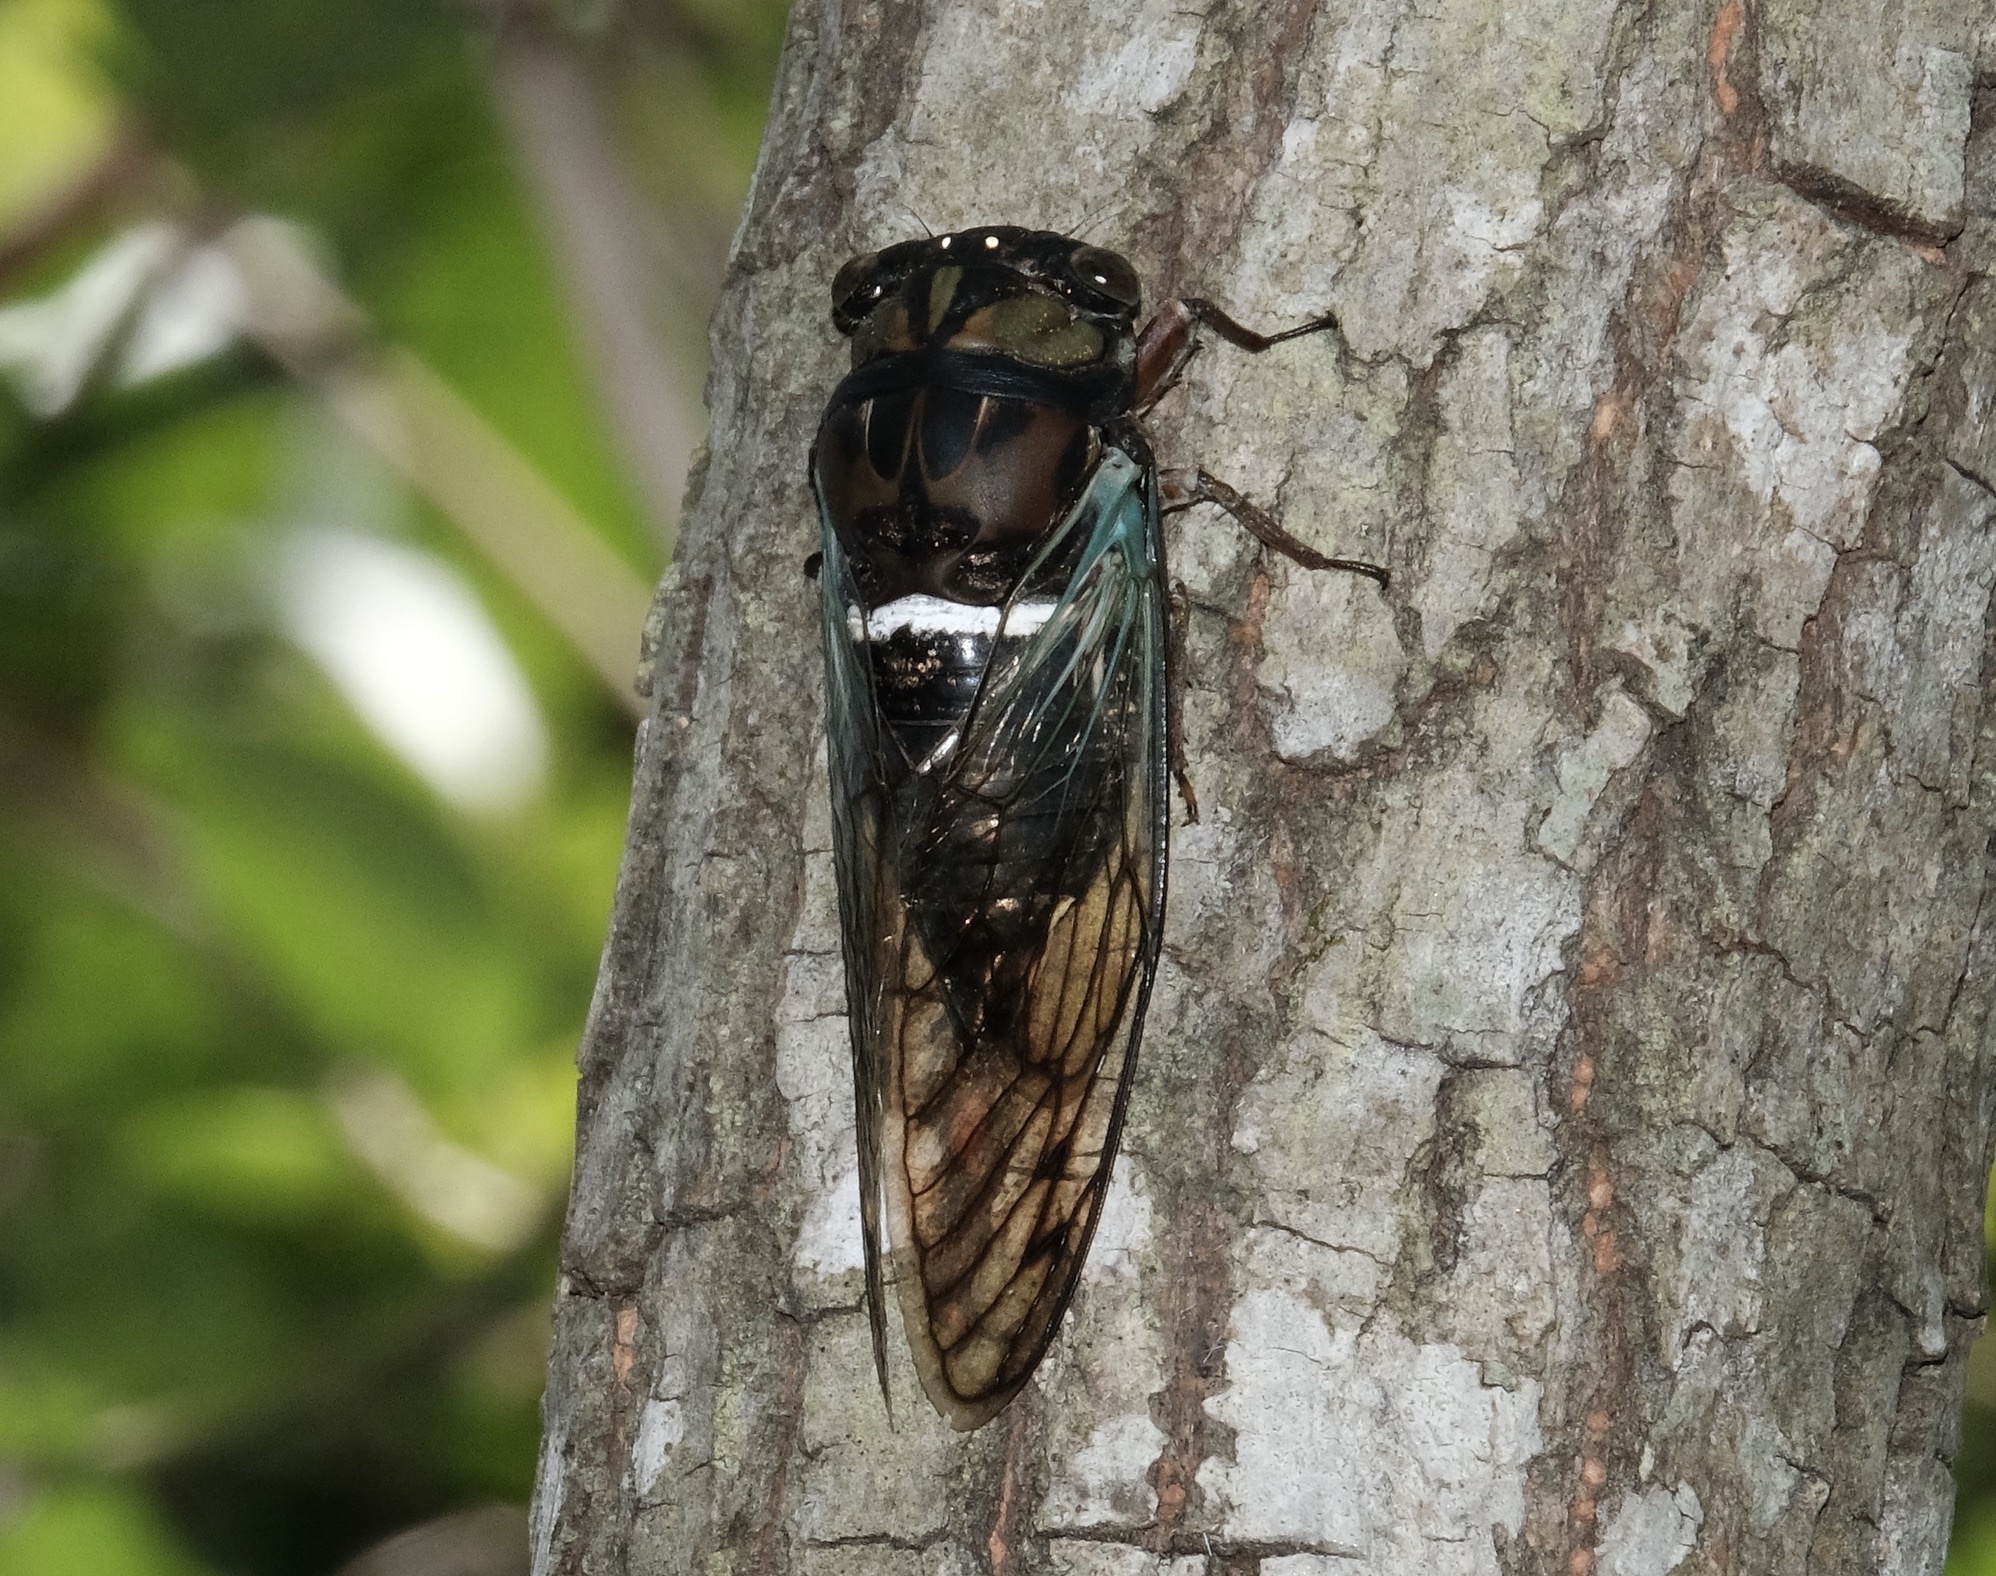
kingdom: Animalia
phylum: Arthropoda
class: Insecta
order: Hemiptera
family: Cicadidae
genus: Neotibicen
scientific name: Neotibicen lyricen
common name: Lyric cicada
